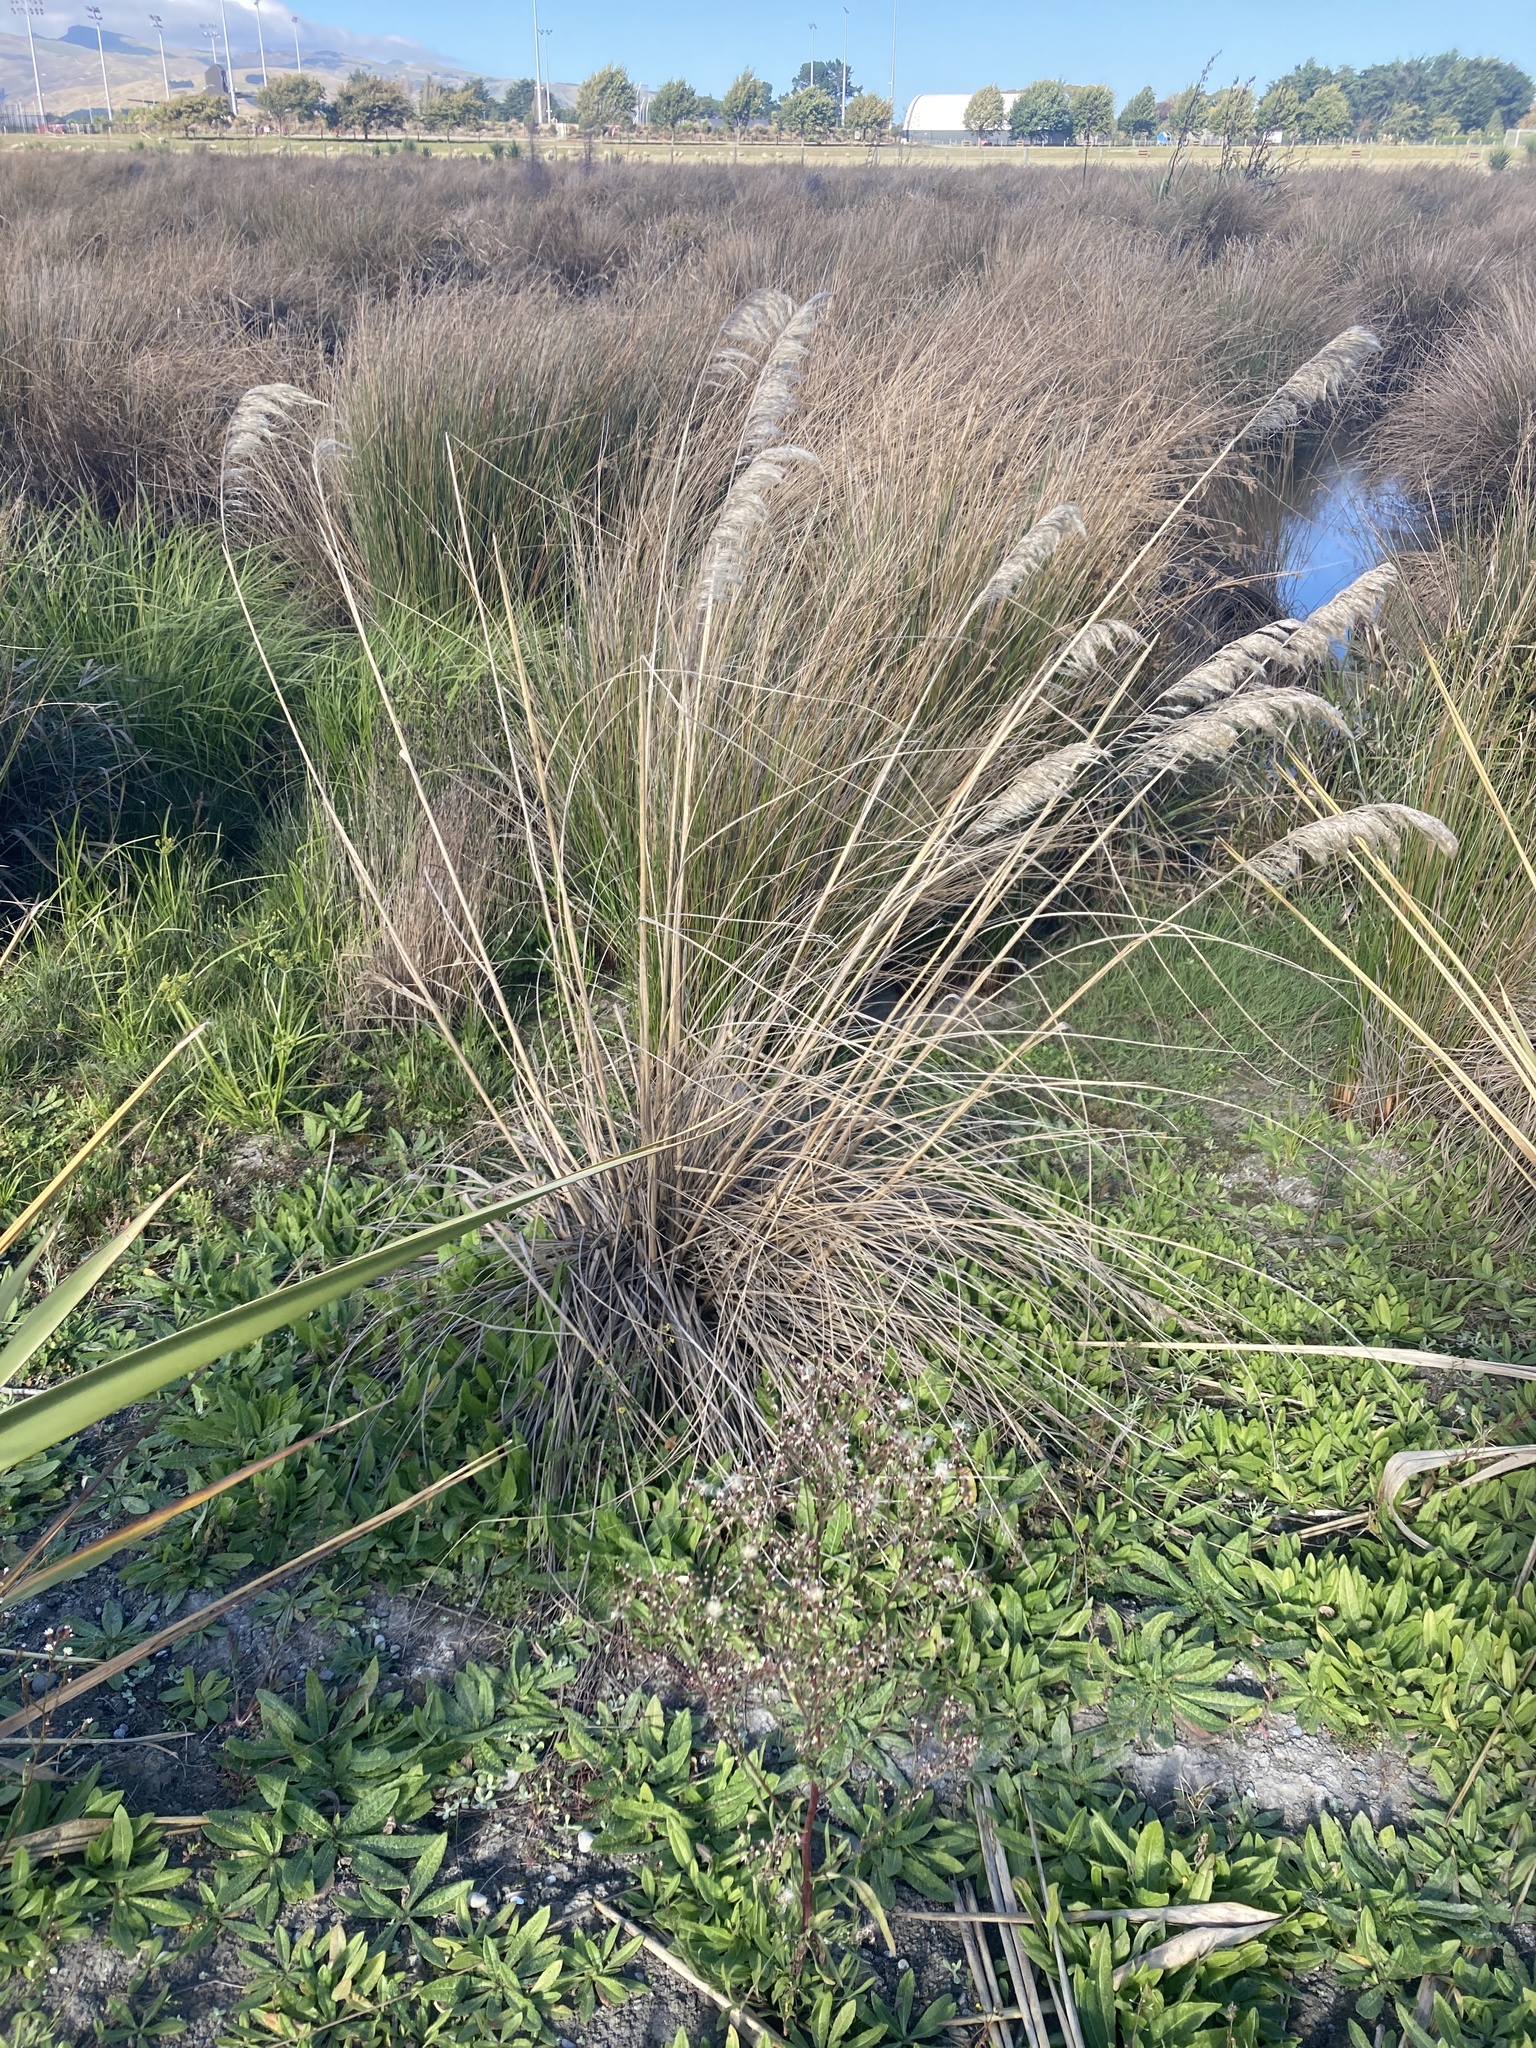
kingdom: Plantae
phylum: Tracheophyta
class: Liliopsida
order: Poales
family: Poaceae
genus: Austroderia
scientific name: Austroderia richardii
